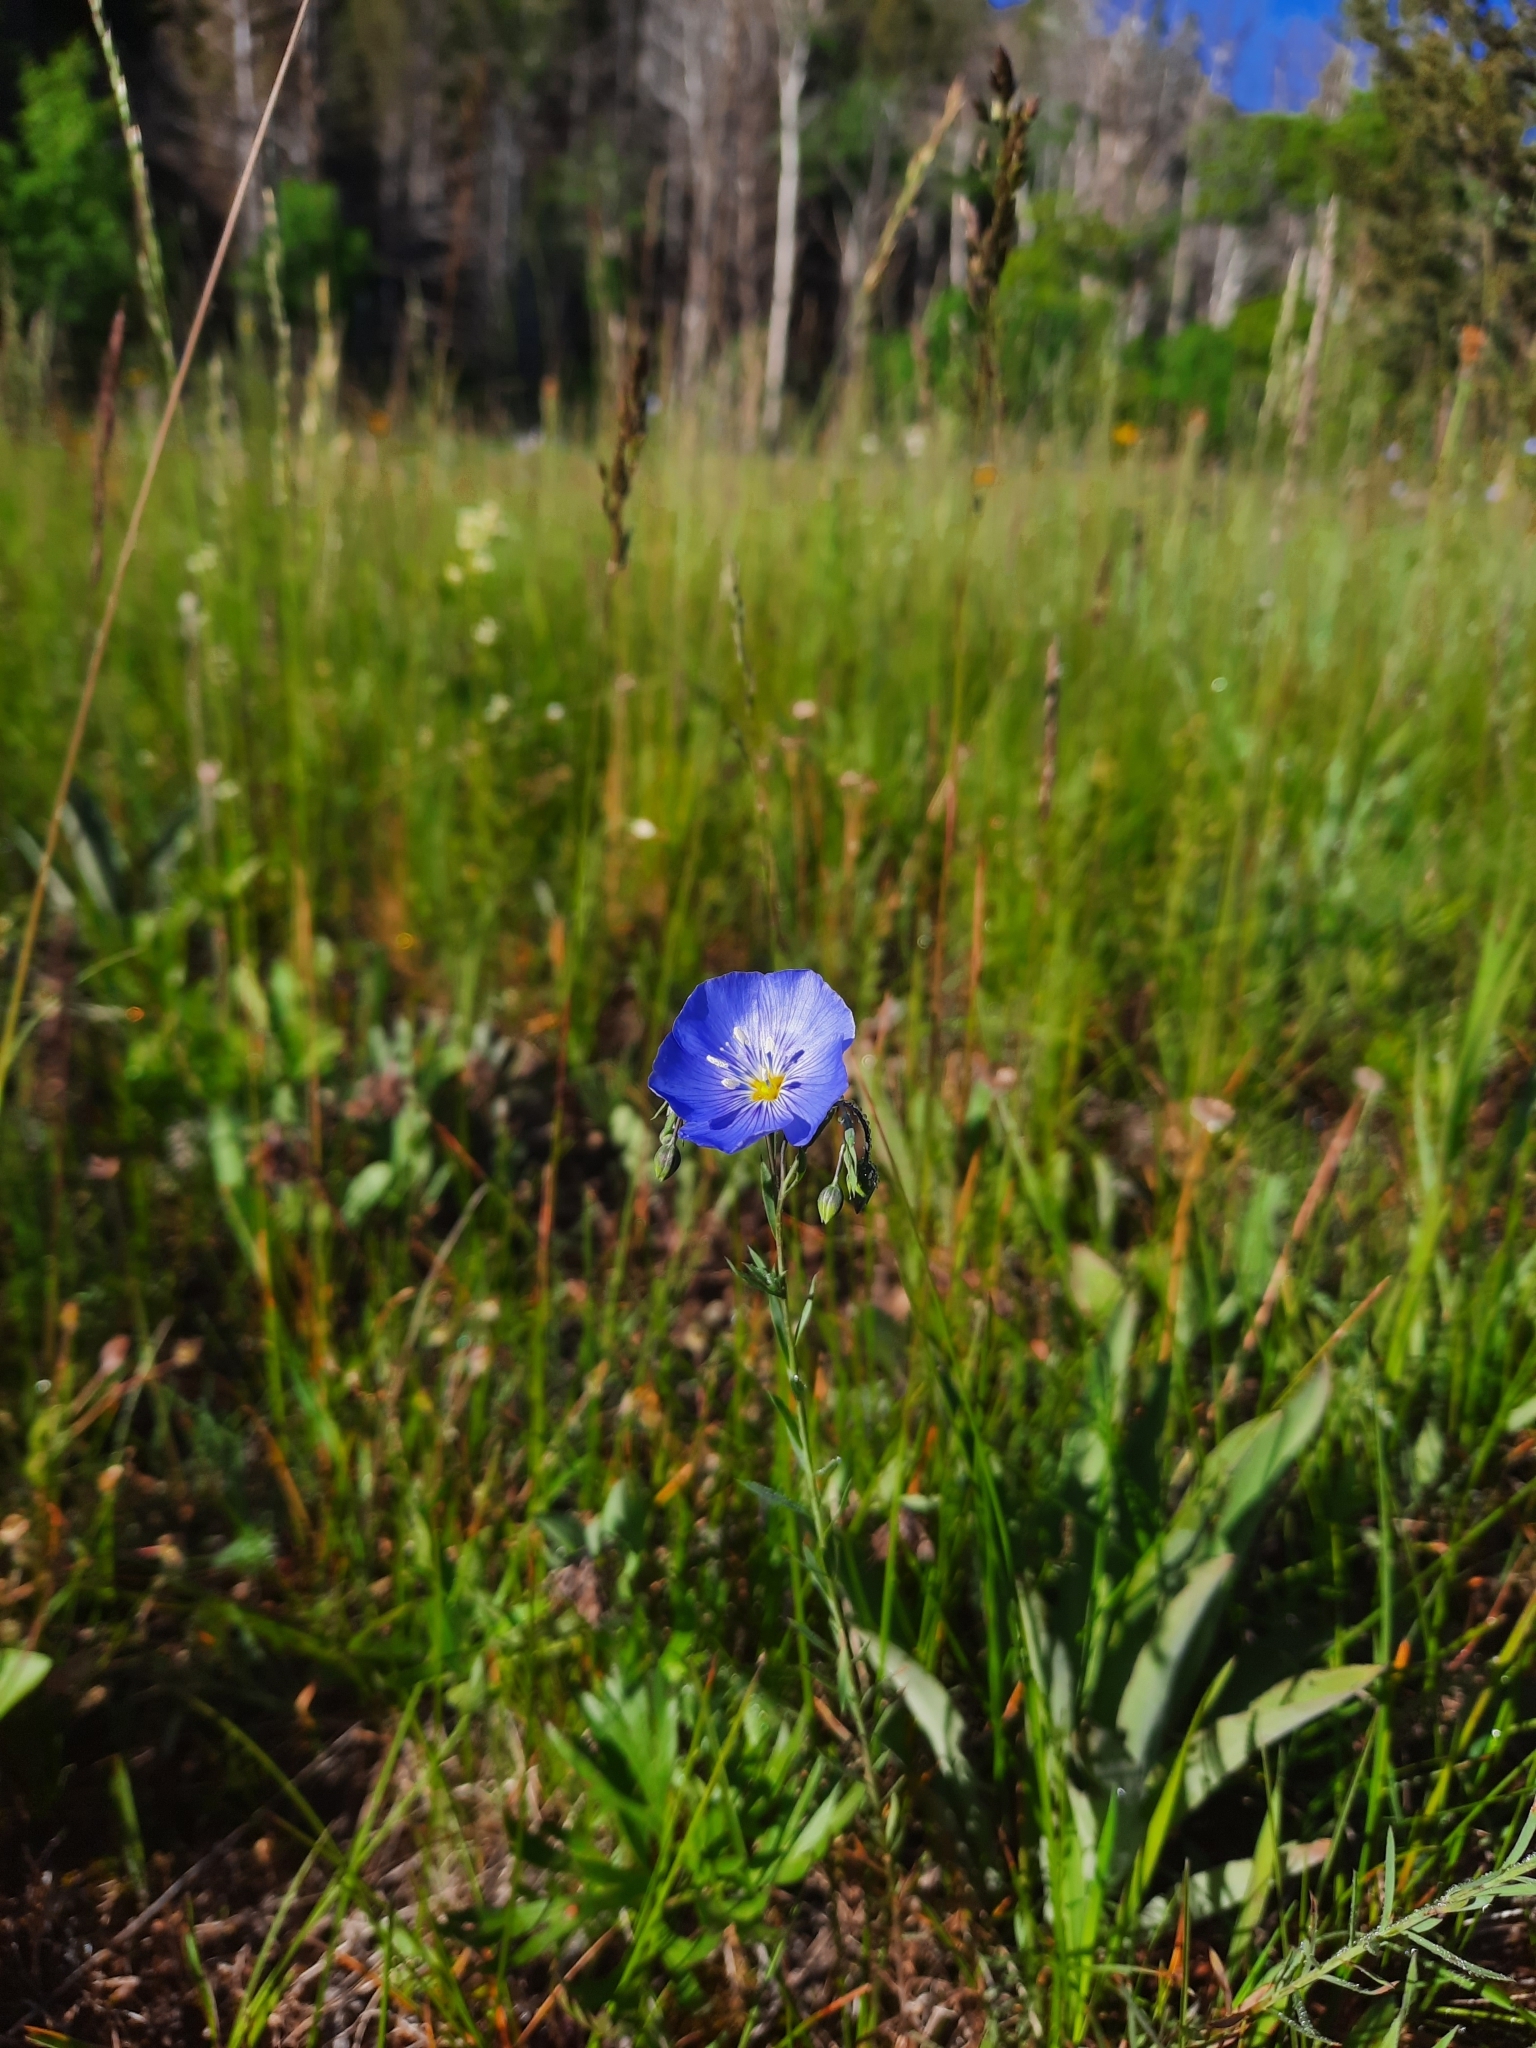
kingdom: Plantae
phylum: Tracheophyta
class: Magnoliopsida
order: Malpighiales
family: Linaceae
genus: Linum
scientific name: Linum lewisii
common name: Prairie flax
